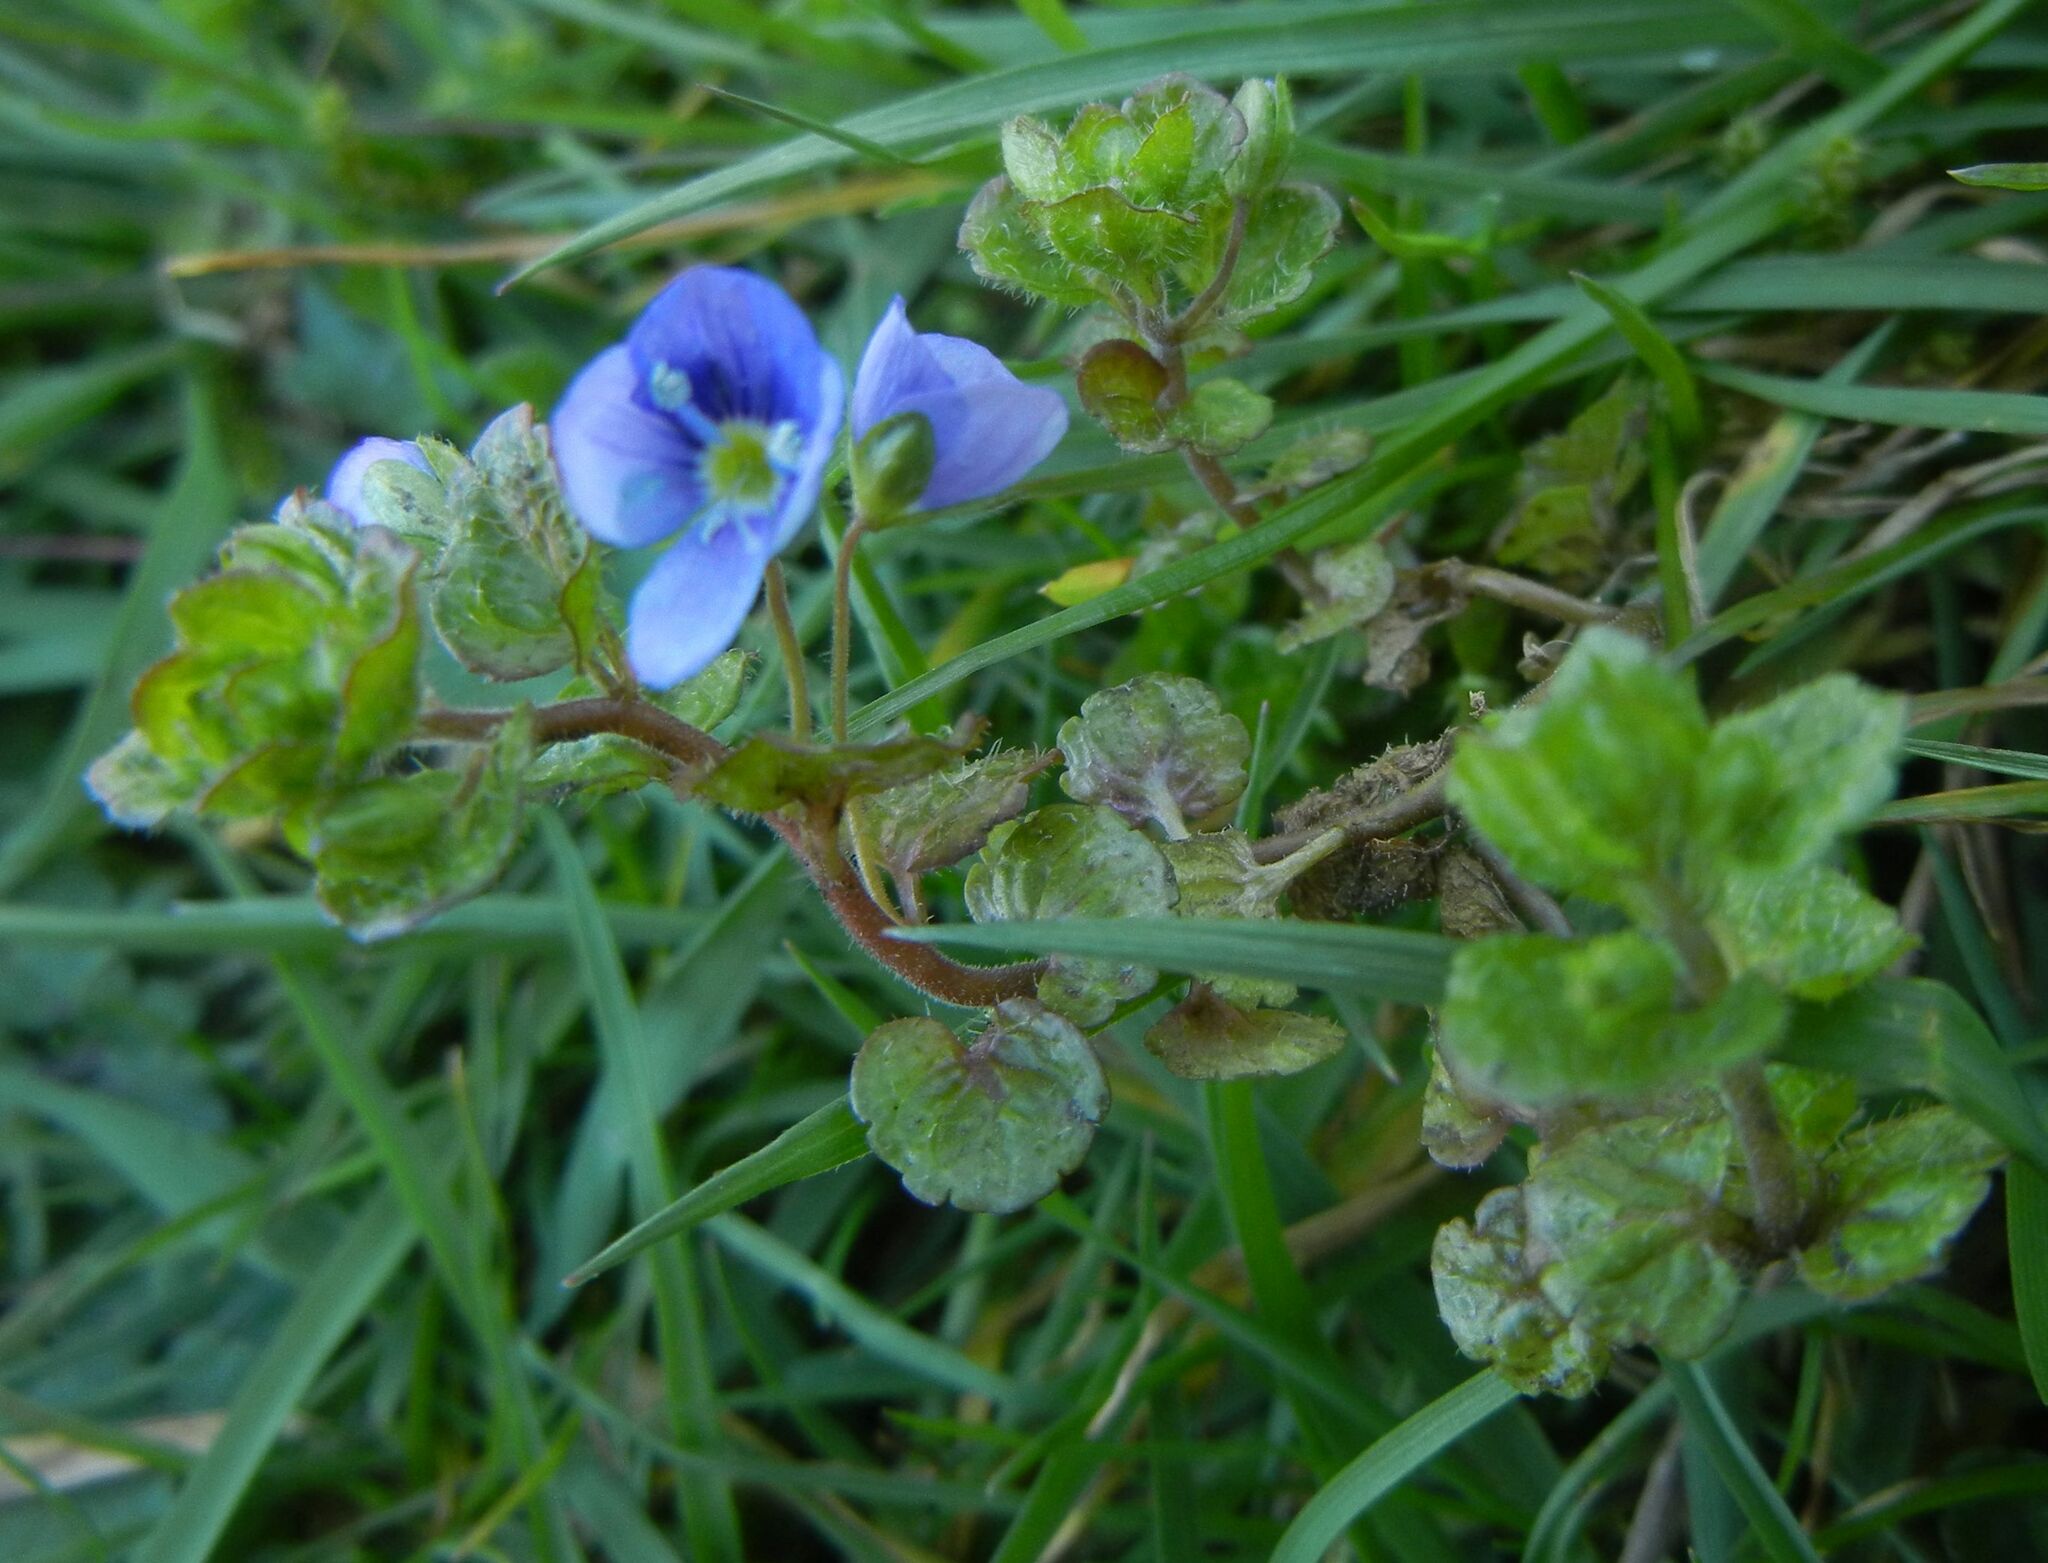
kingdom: Plantae
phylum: Tracheophyta
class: Magnoliopsida
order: Lamiales
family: Plantaginaceae
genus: Veronica
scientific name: Veronica filiformis
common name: Slender speedwell
